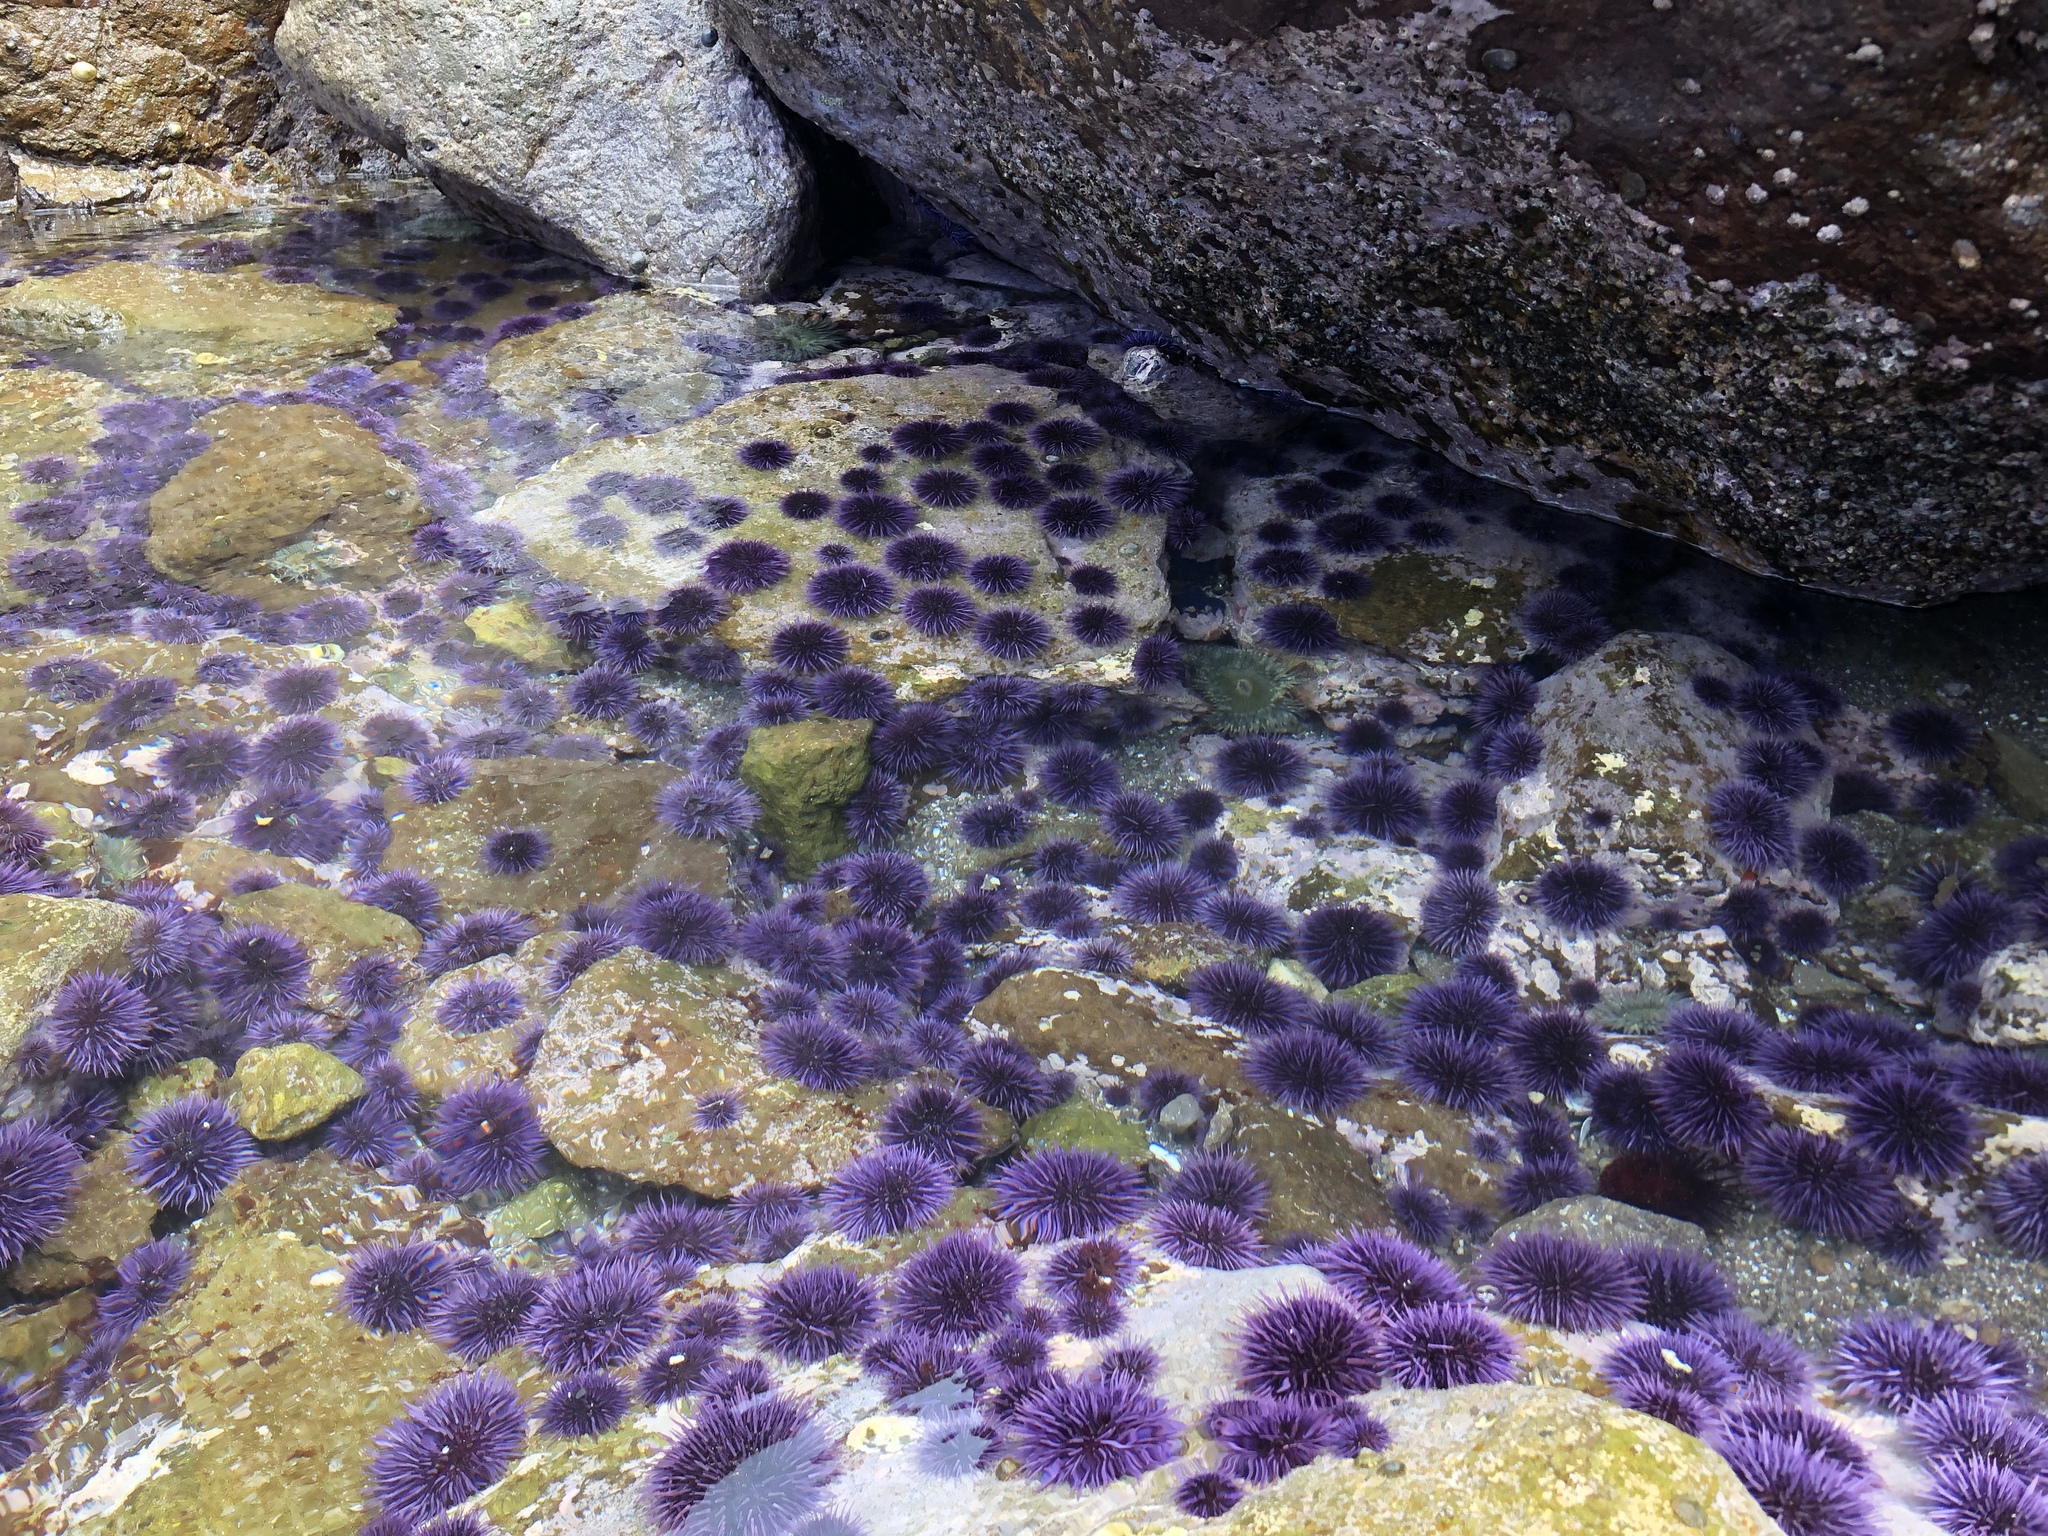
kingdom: Animalia
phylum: Echinodermata
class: Echinoidea
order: Camarodonta
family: Strongylocentrotidae
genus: Strongylocentrotus
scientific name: Strongylocentrotus purpuratus
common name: Purple sea urchin
